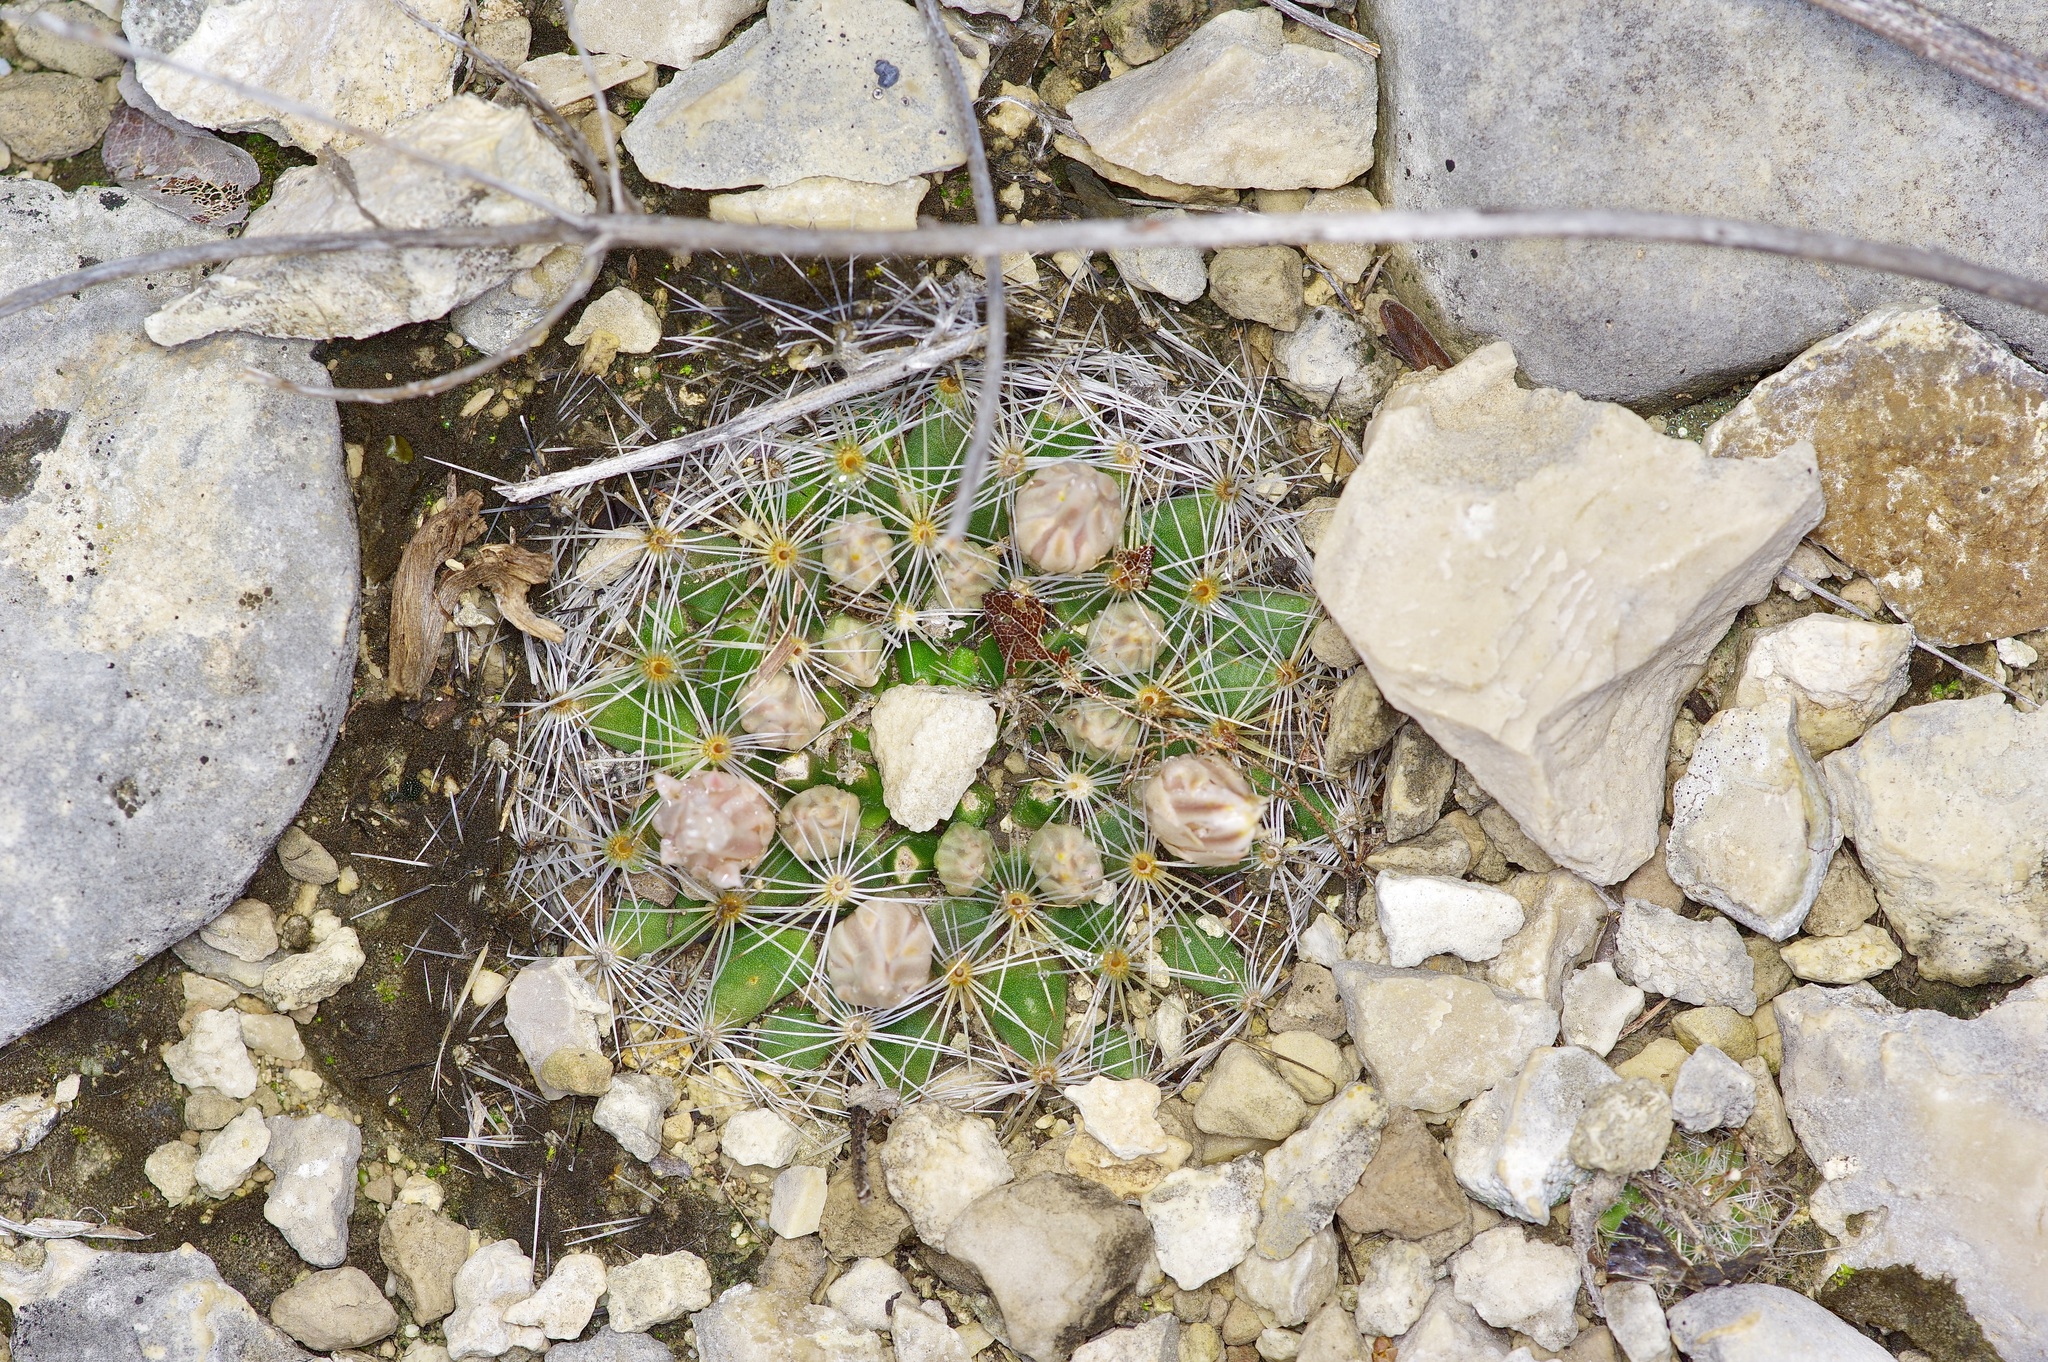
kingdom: Plantae
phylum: Tracheophyta
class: Magnoliopsida
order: Caryophyllales
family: Cactaceae
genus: Mammillaria
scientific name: Mammillaria heyderi
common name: Little nipple cactus
